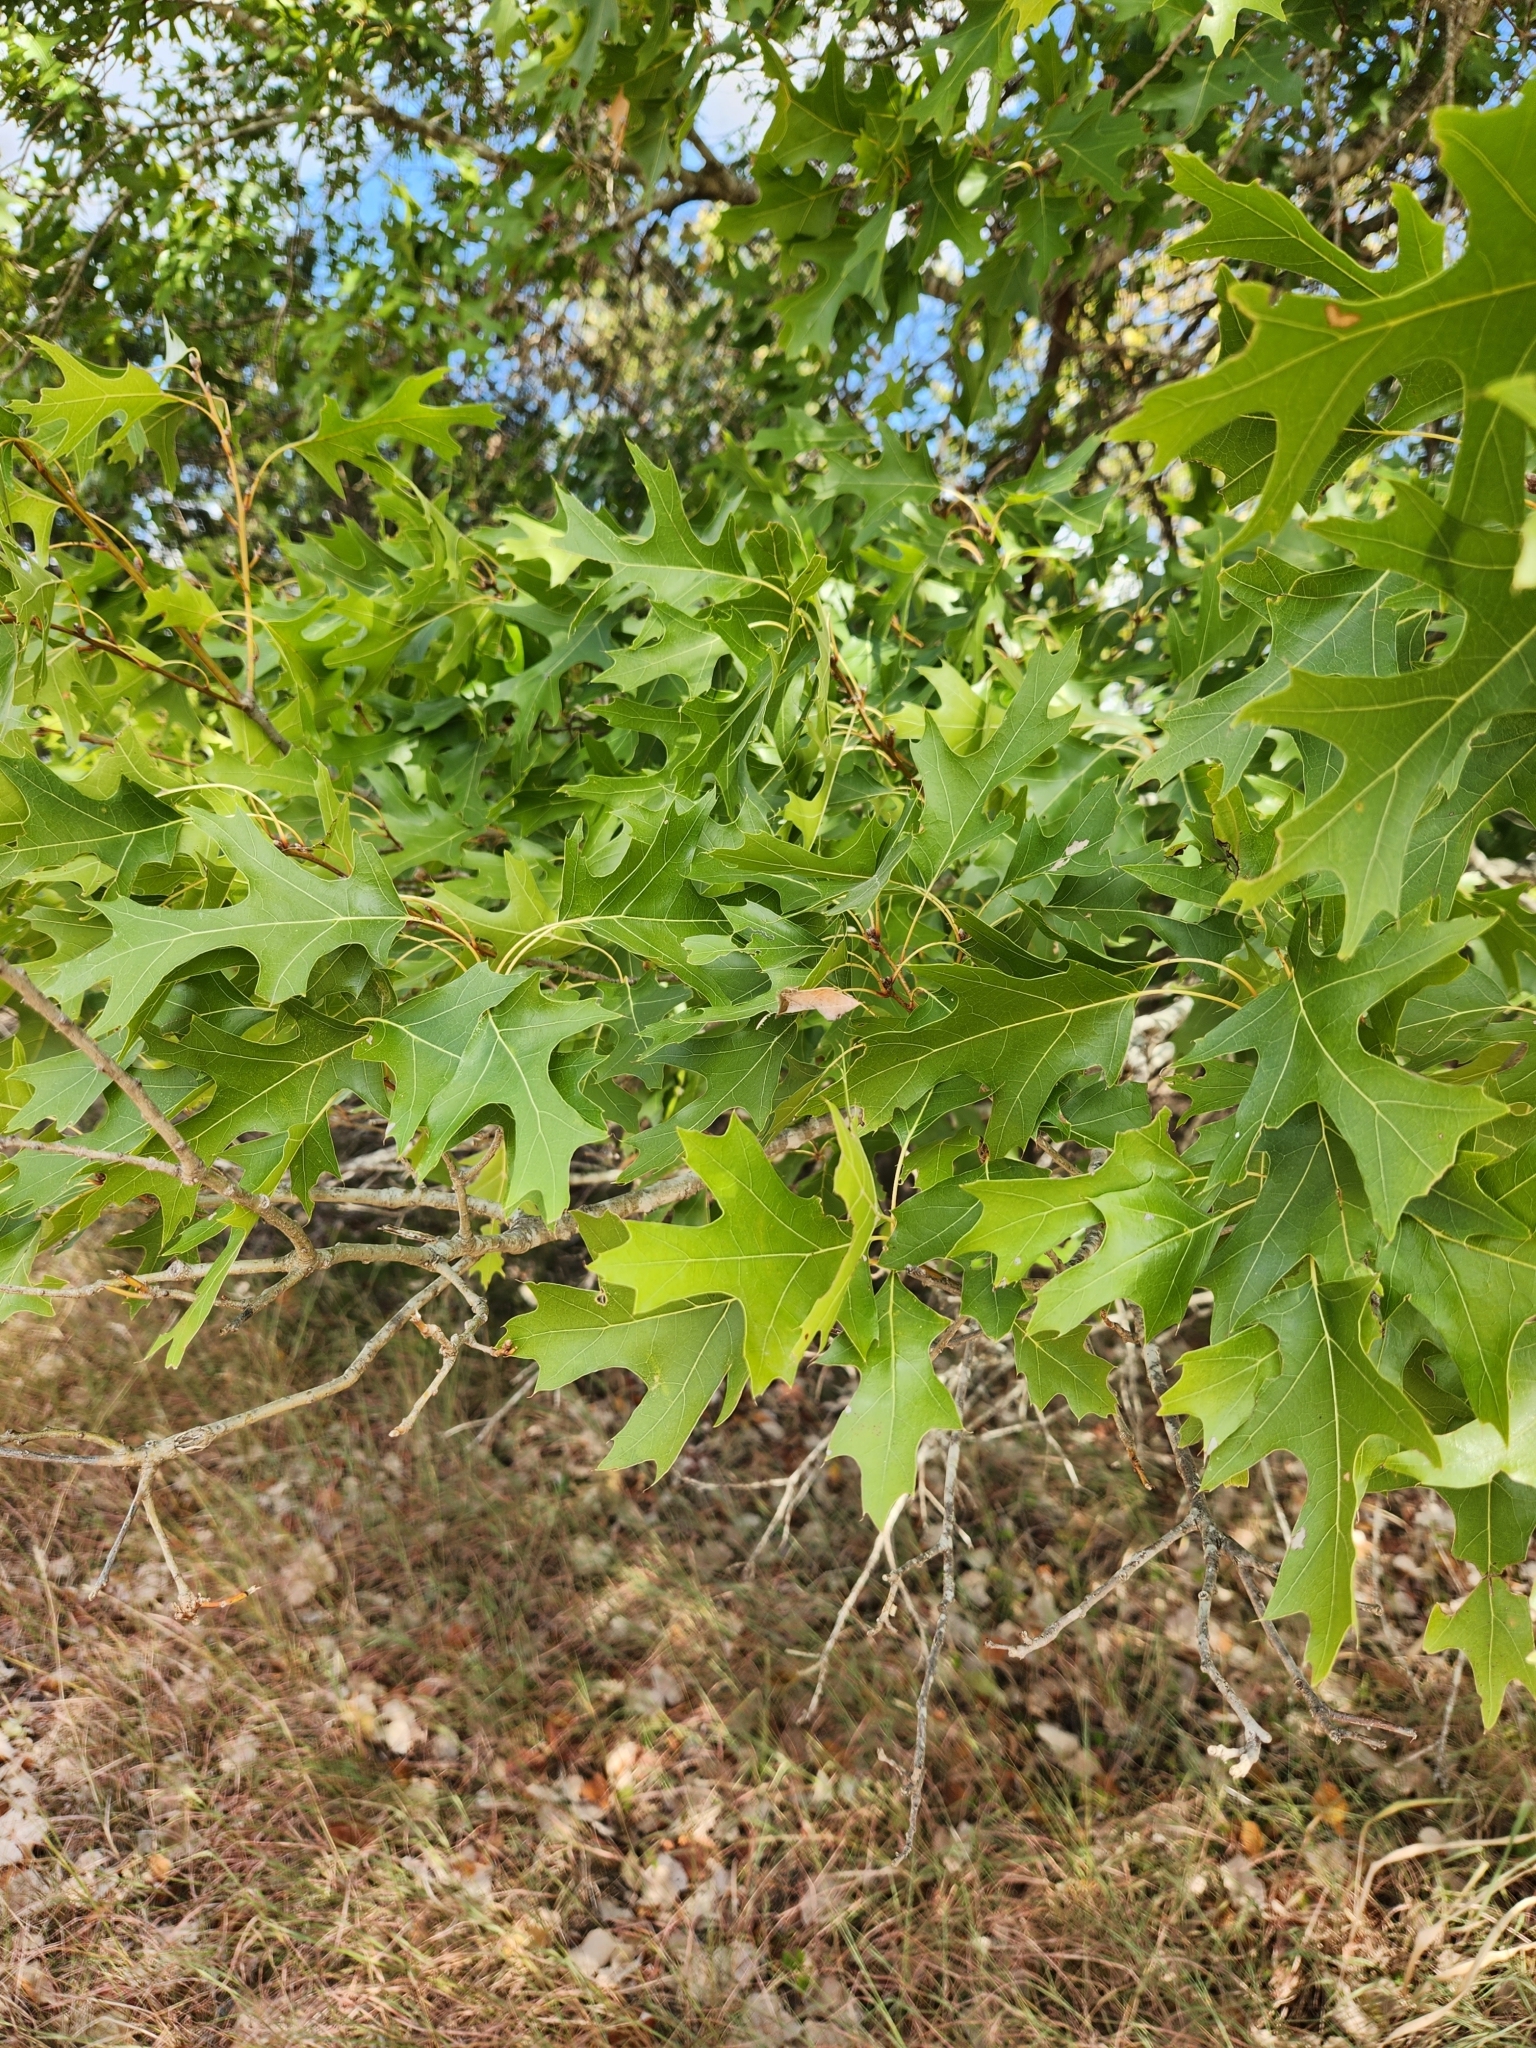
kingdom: Plantae
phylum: Tracheophyta
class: Magnoliopsida
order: Fagales
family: Fagaceae
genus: Quercus
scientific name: Quercus buckleyi
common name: Buckley oak
